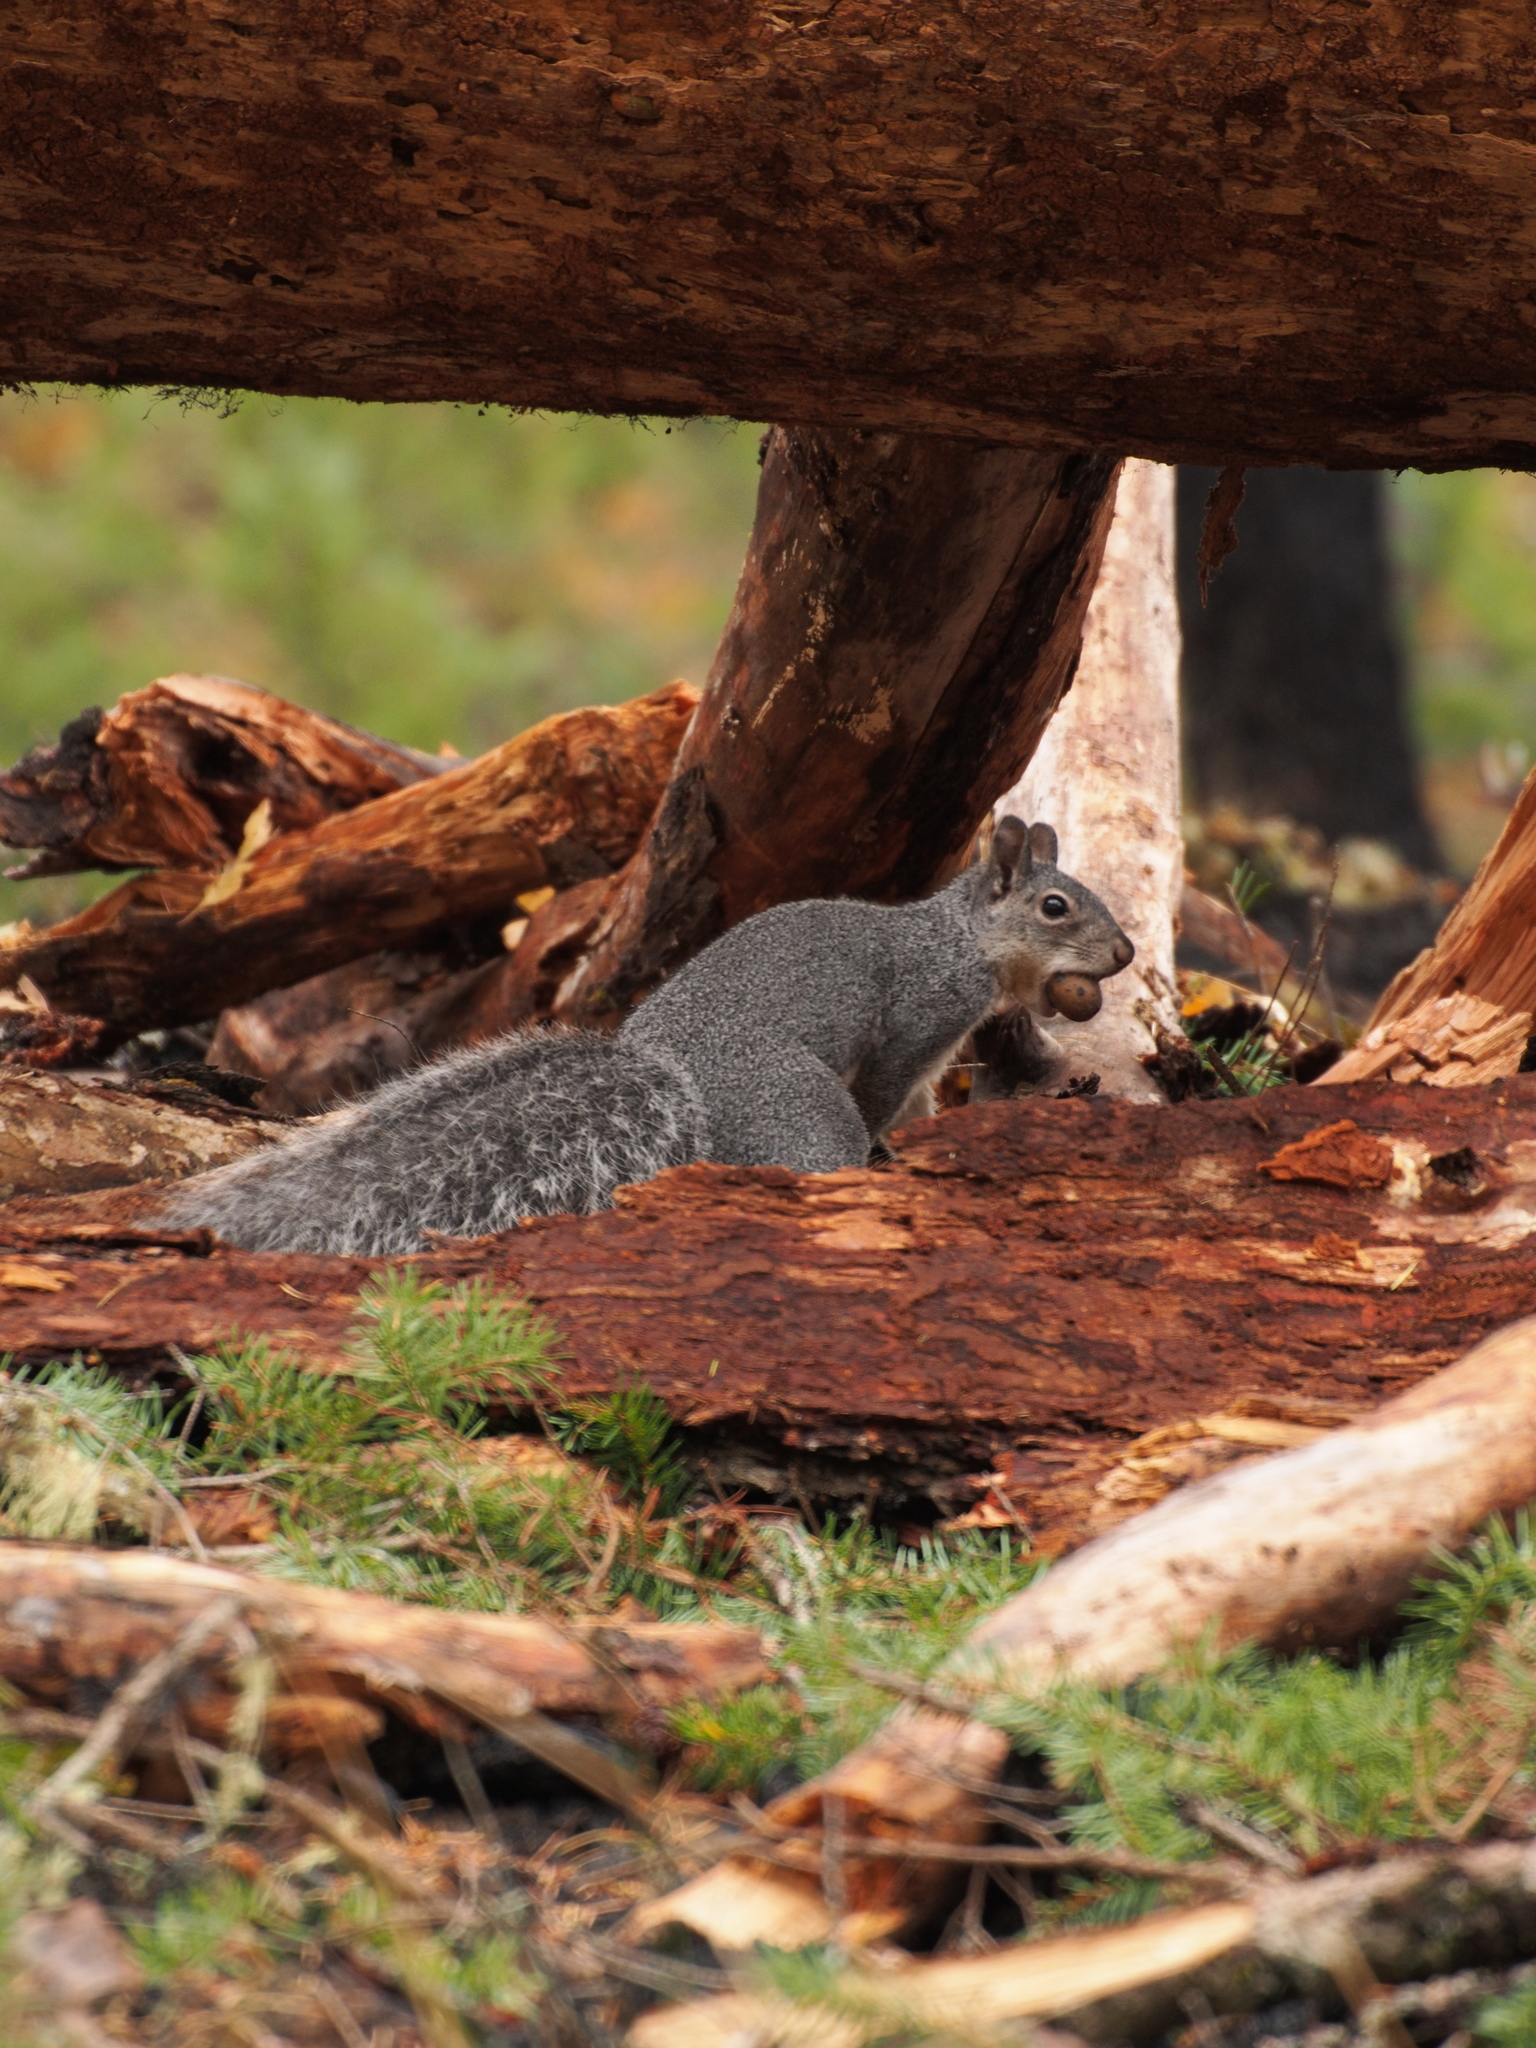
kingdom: Animalia
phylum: Chordata
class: Mammalia
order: Rodentia
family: Sciuridae
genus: Sciurus
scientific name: Sciurus griseus
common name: Western gray squirrel
